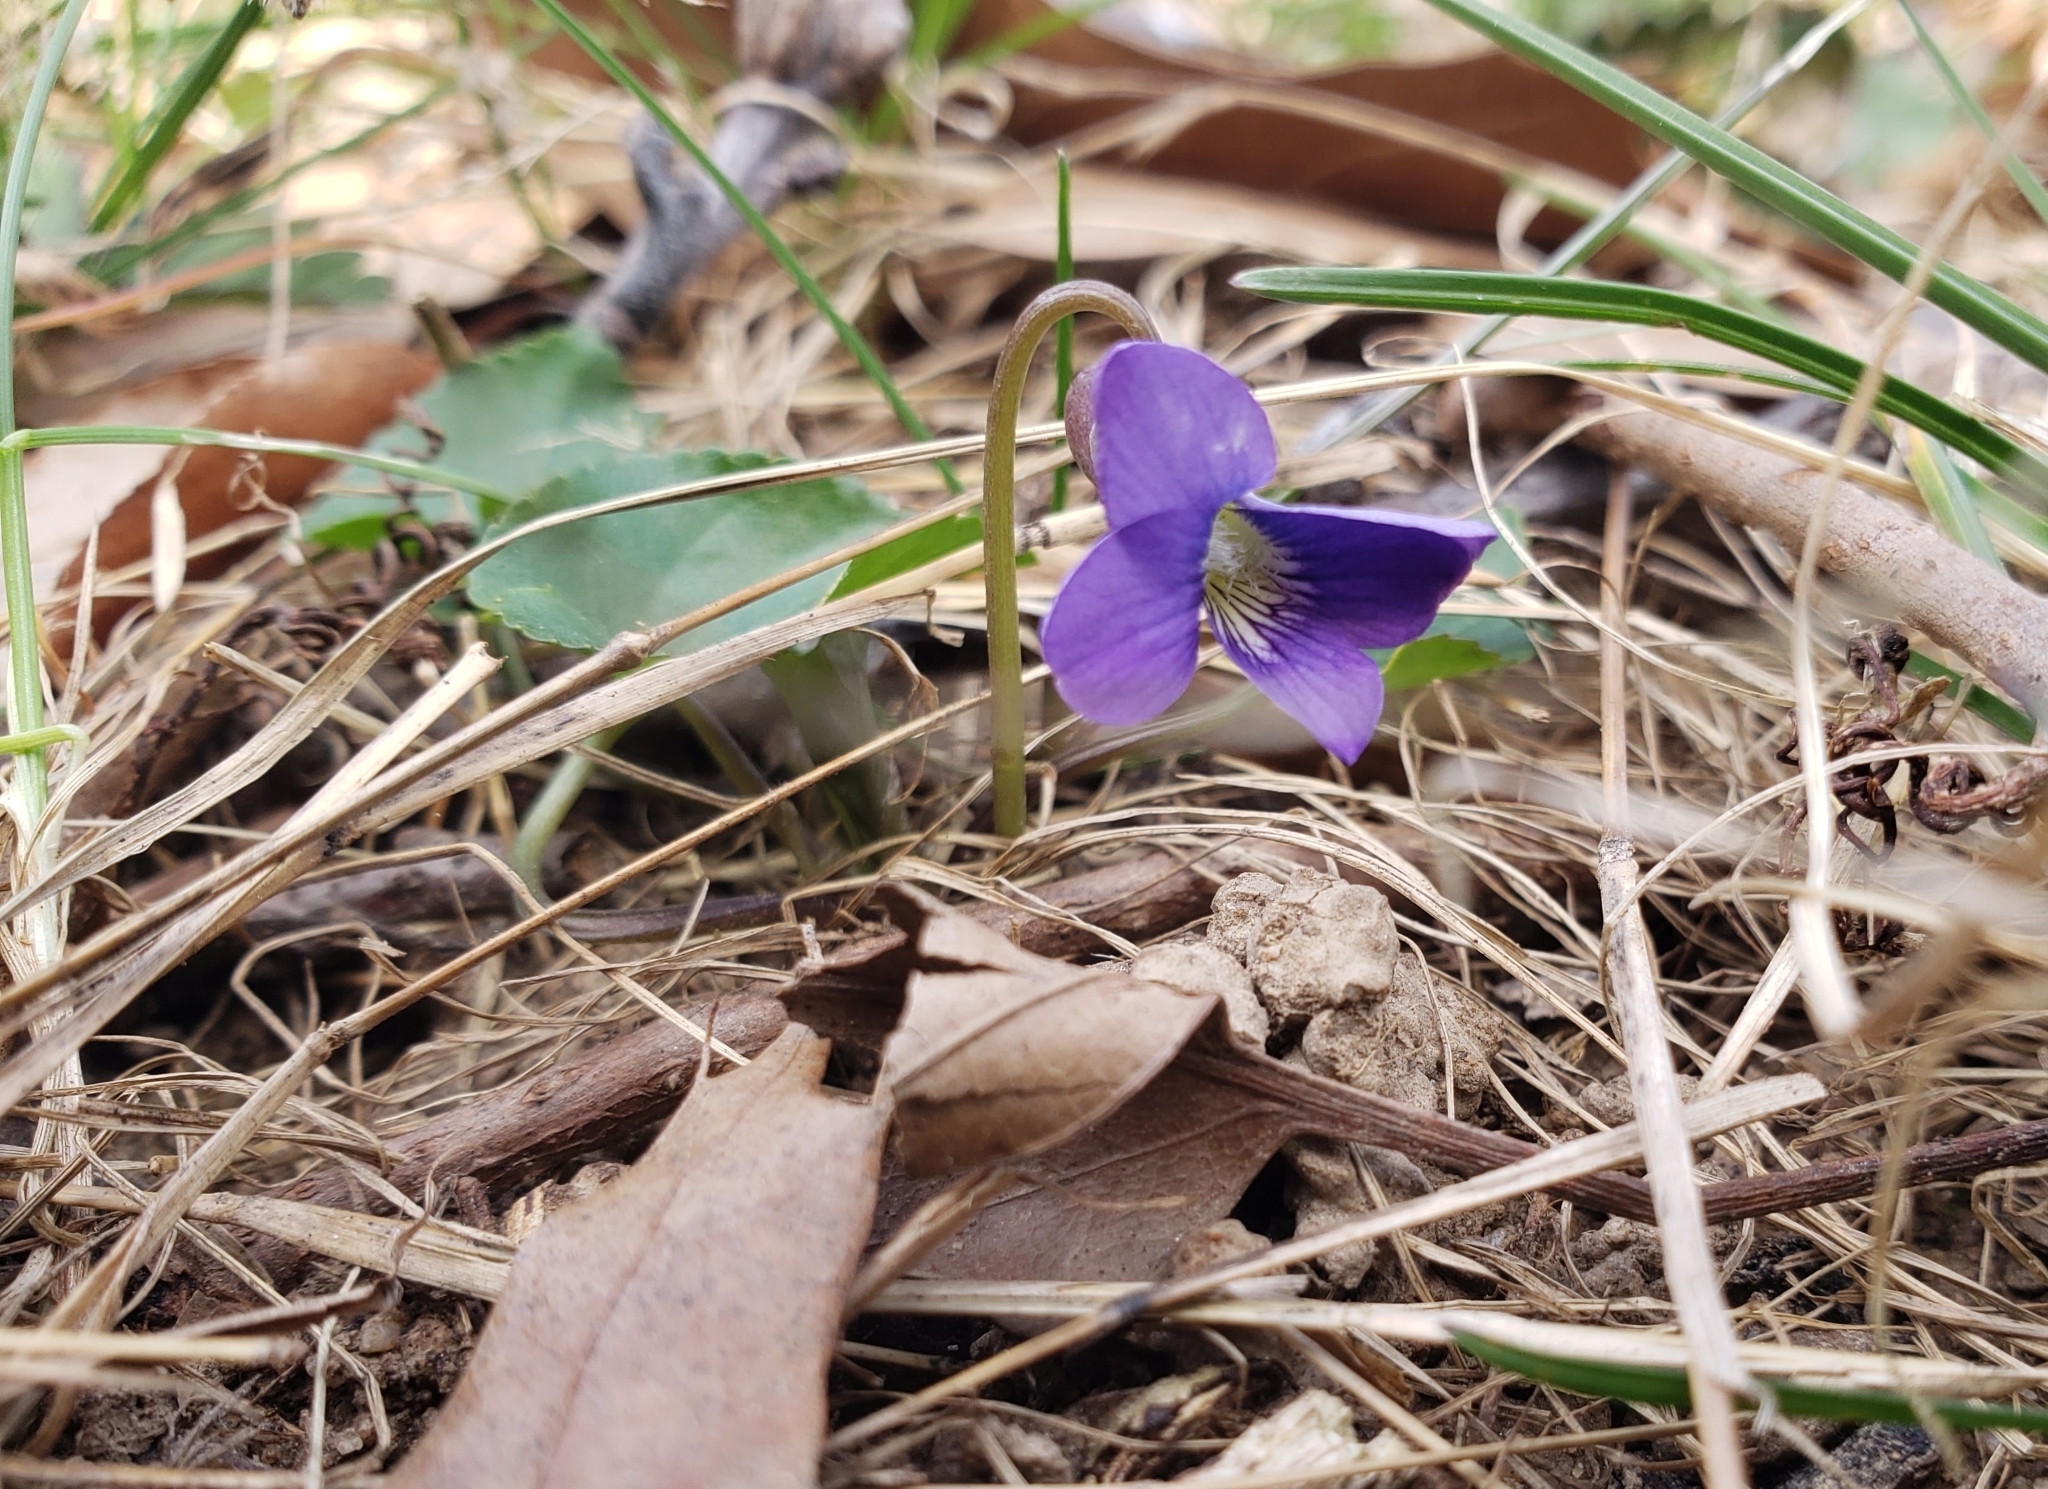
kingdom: Plantae
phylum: Tracheophyta
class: Magnoliopsida
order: Malpighiales
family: Violaceae
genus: Viola
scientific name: Viola sororia
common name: Dooryard violet
